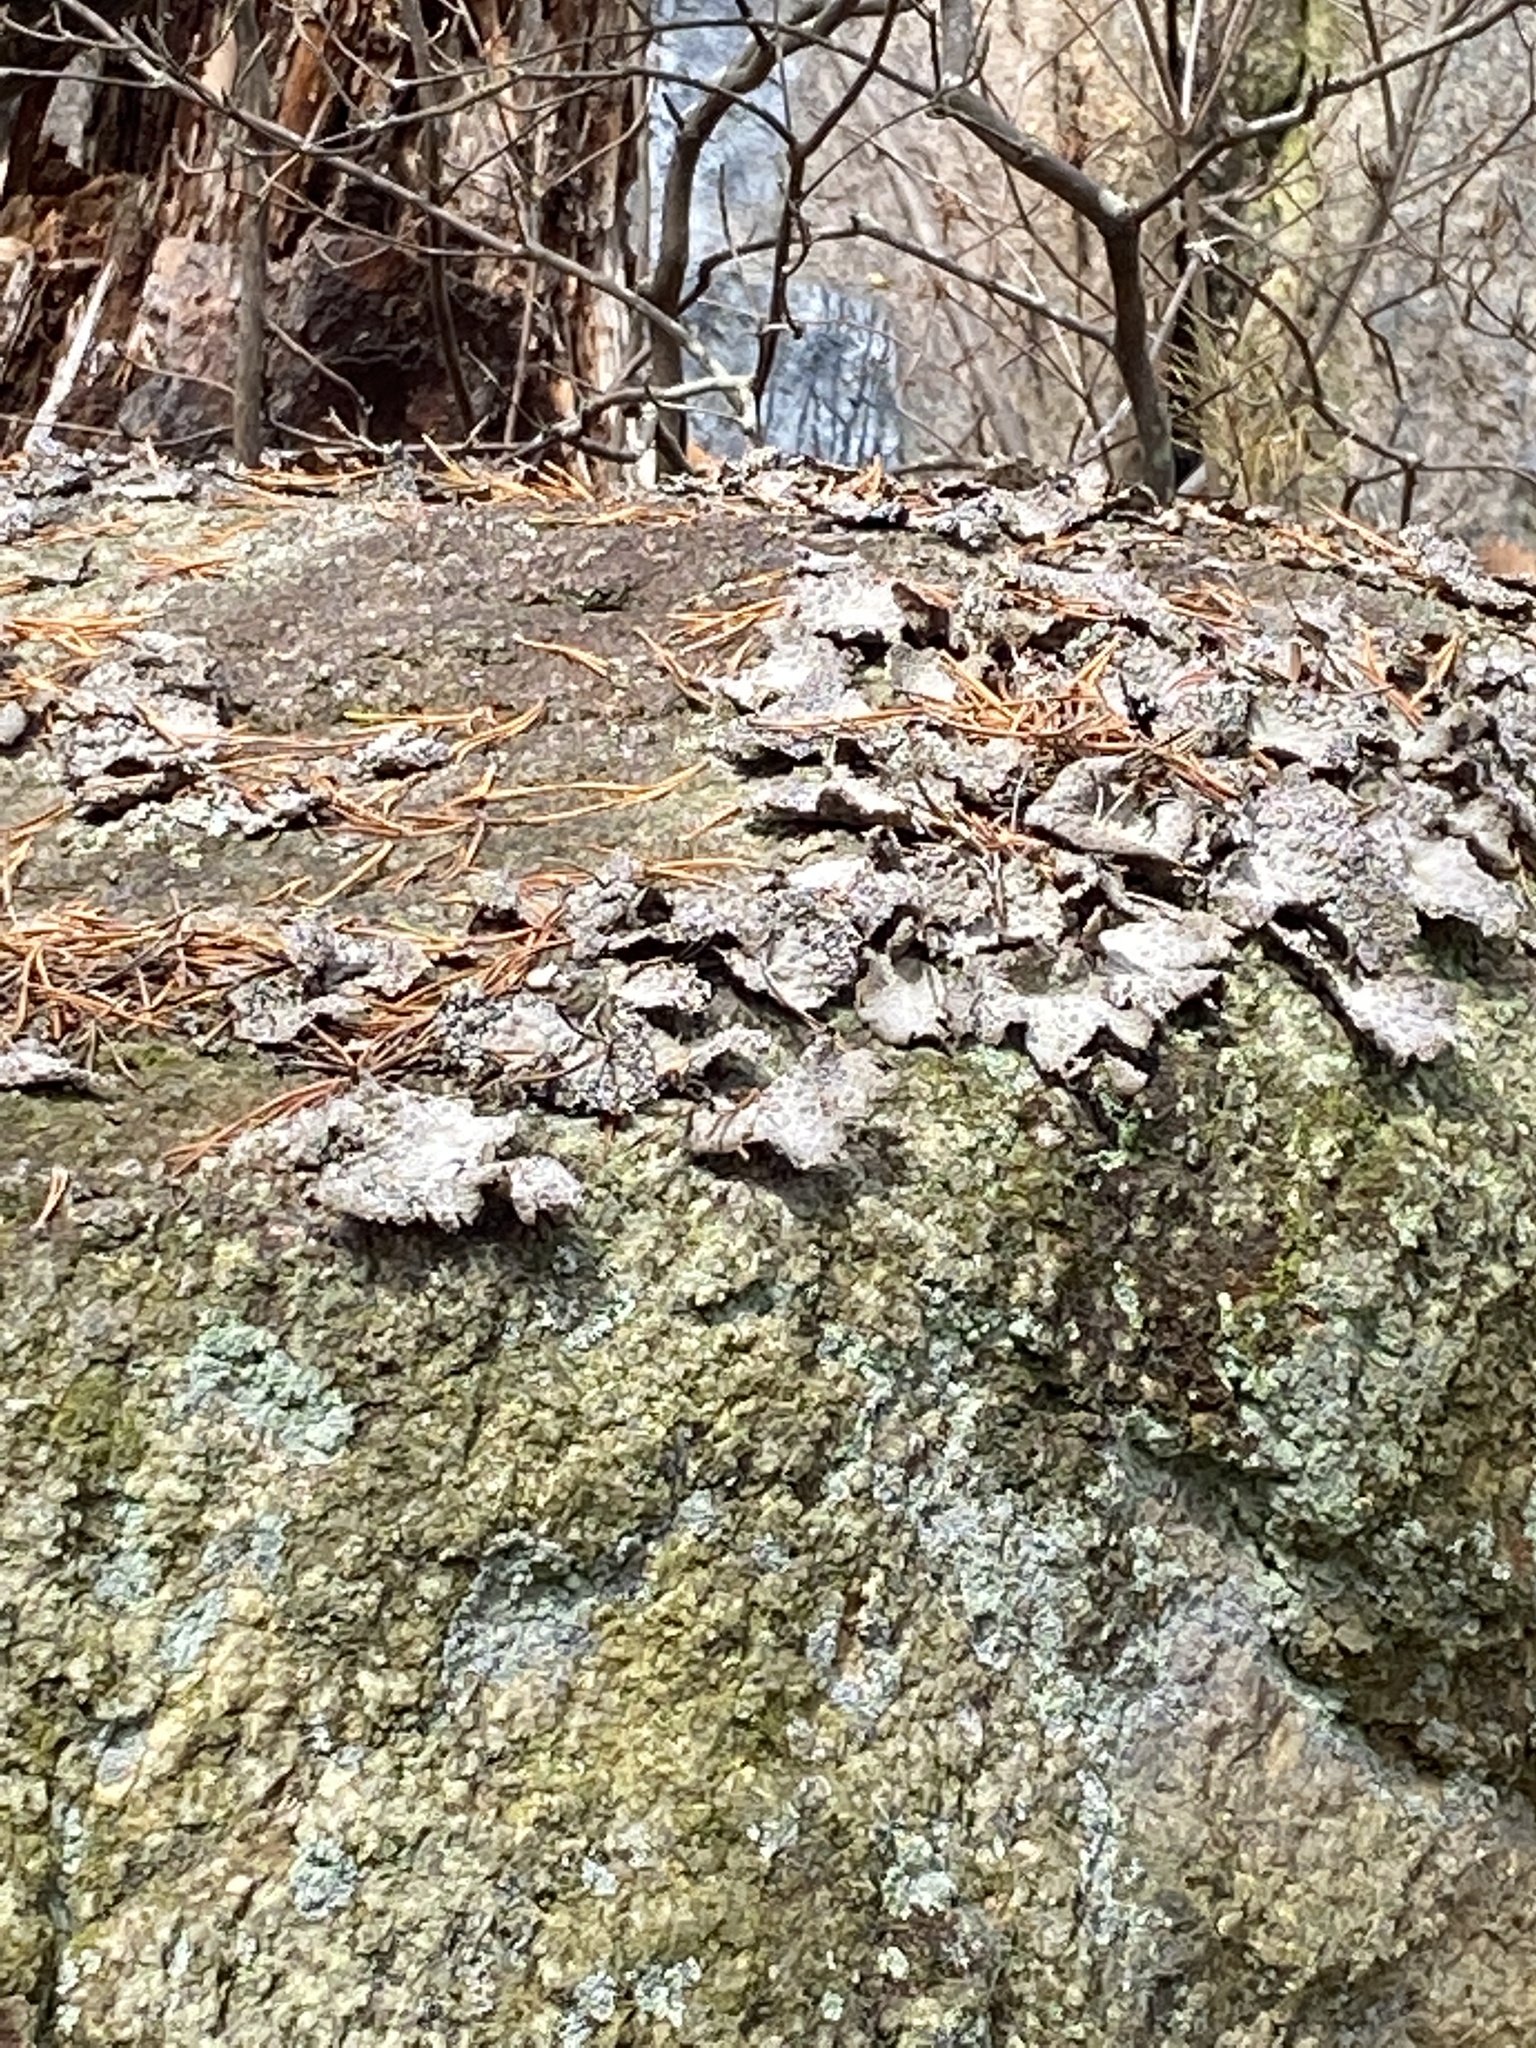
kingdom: Fungi
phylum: Ascomycota
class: Lecanoromycetes
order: Umbilicariales
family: Umbilicariaceae
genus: Lasallia
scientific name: Lasallia papulosa
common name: Common toadskin lichen
